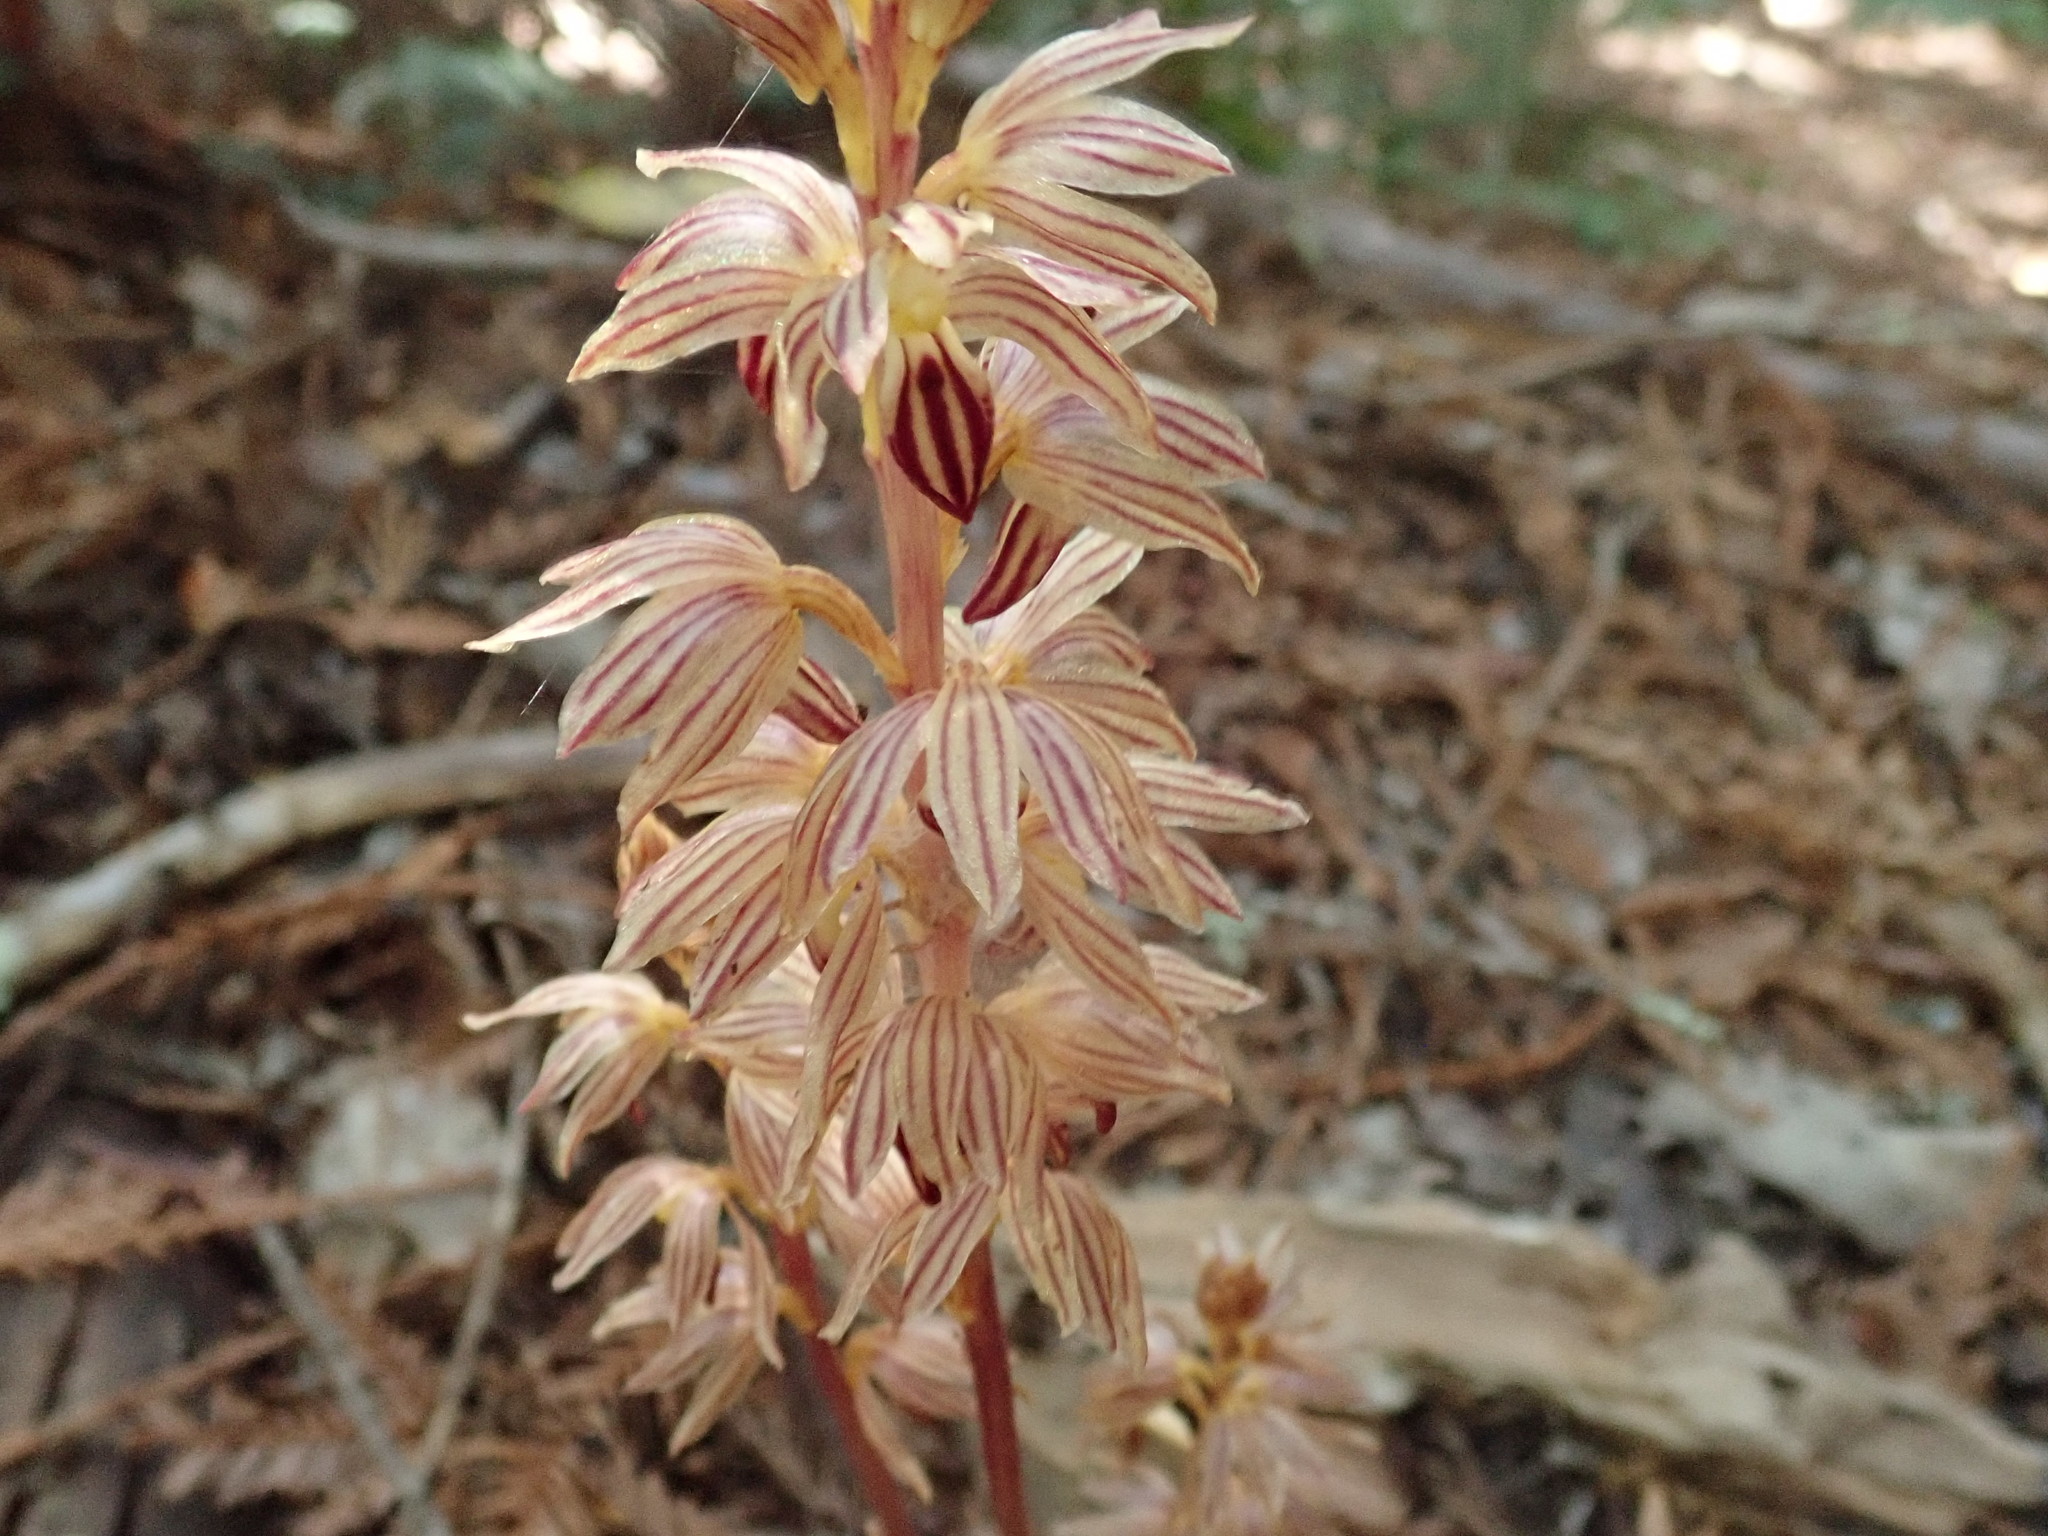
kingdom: Plantae
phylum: Tracheophyta
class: Liliopsida
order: Asparagales
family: Orchidaceae
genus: Corallorhiza
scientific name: Corallorhiza striata
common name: Hooded coralroot
